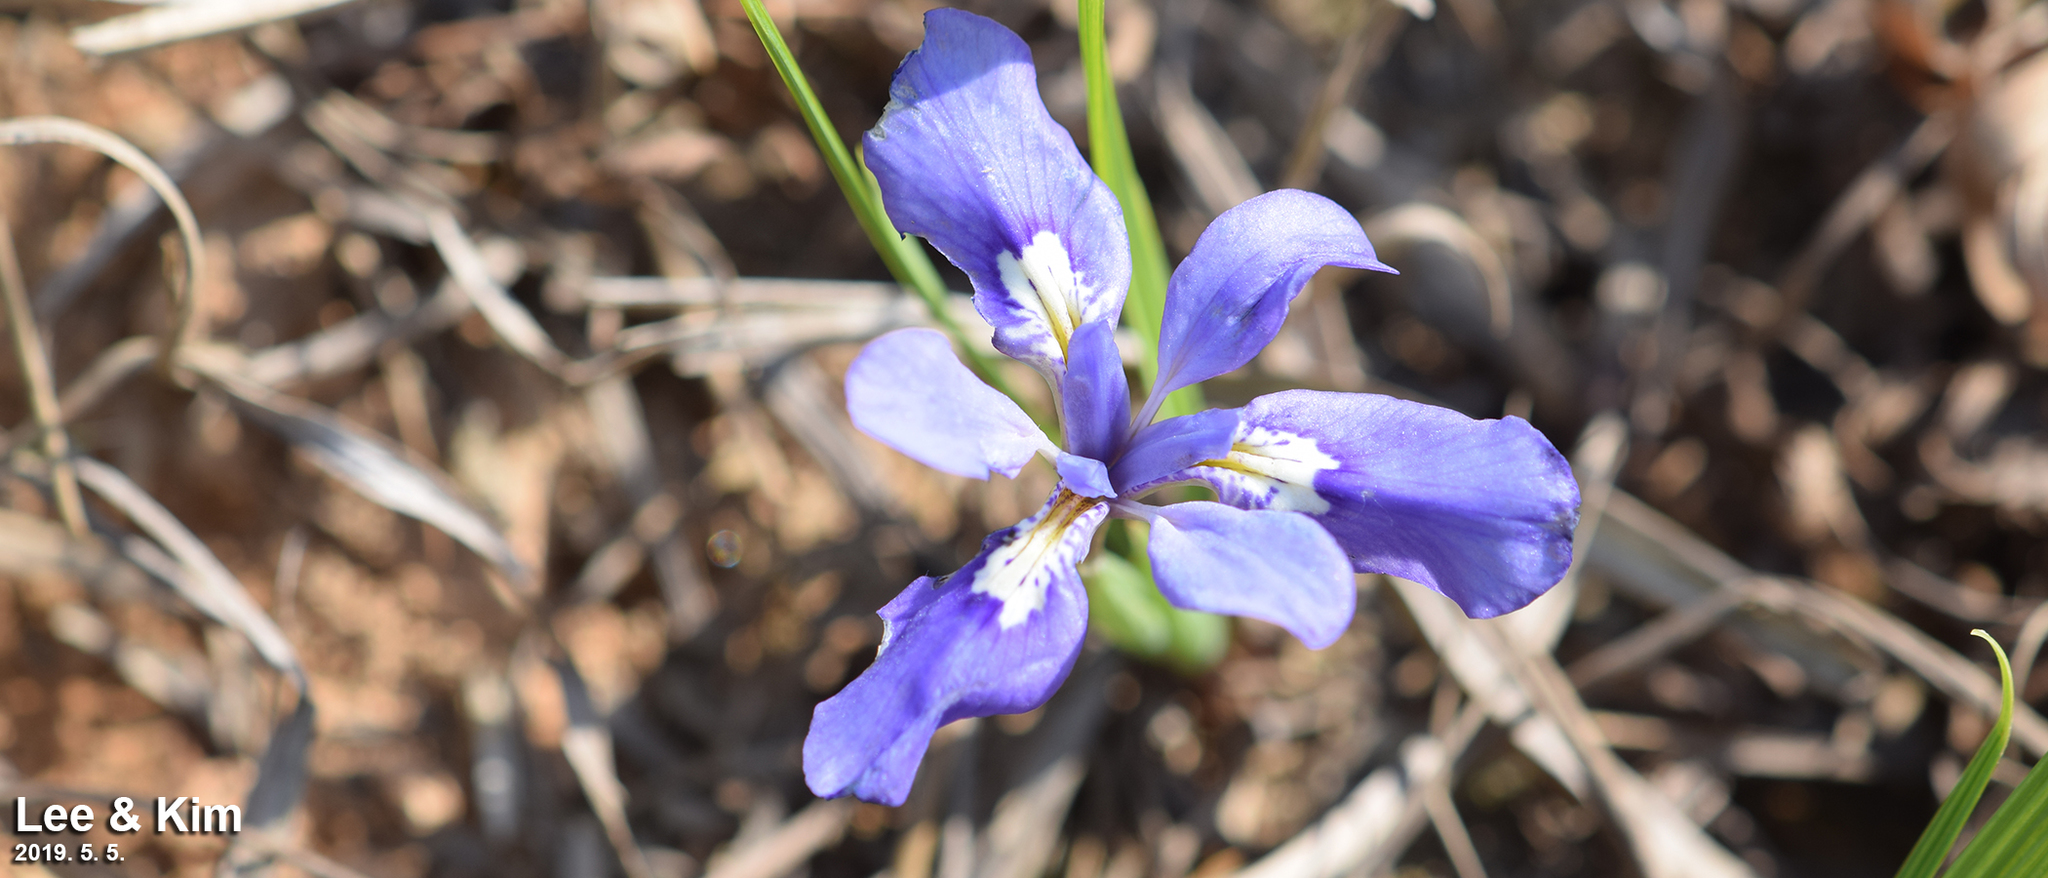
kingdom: Plantae
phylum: Tracheophyta
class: Liliopsida
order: Asparagales
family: Iridaceae
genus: Iris
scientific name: Iris rossii
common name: Long-tail iris
